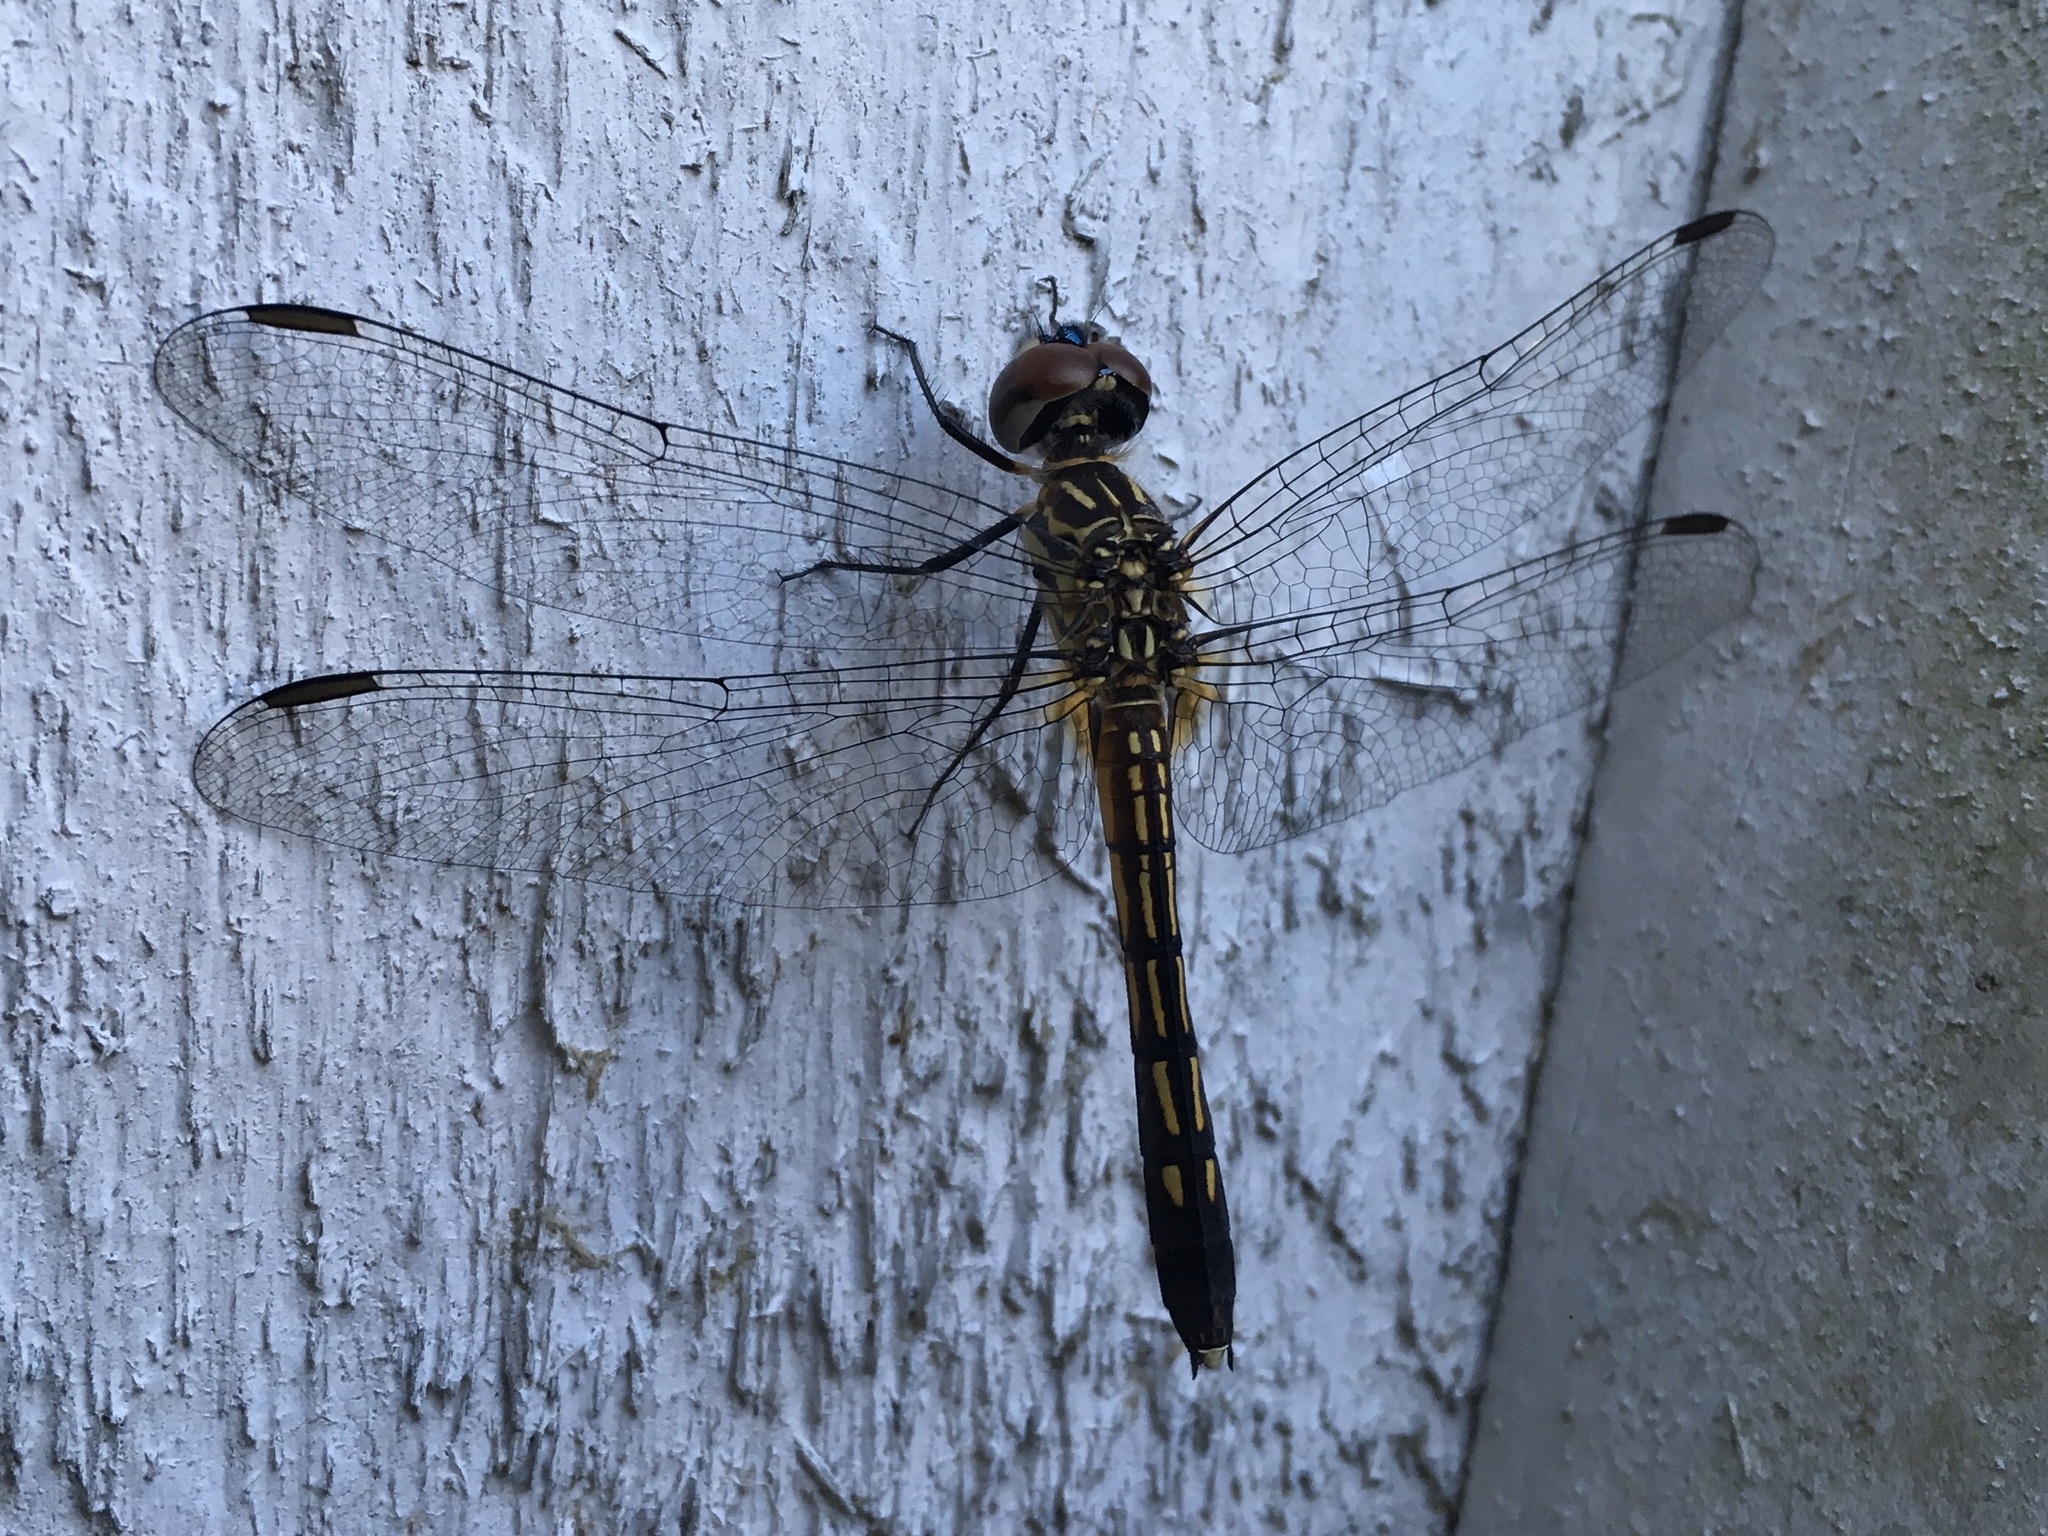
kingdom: Animalia
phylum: Arthropoda
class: Insecta
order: Odonata
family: Libellulidae
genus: Pachydiplax
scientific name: Pachydiplax longipennis
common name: Blue dasher
